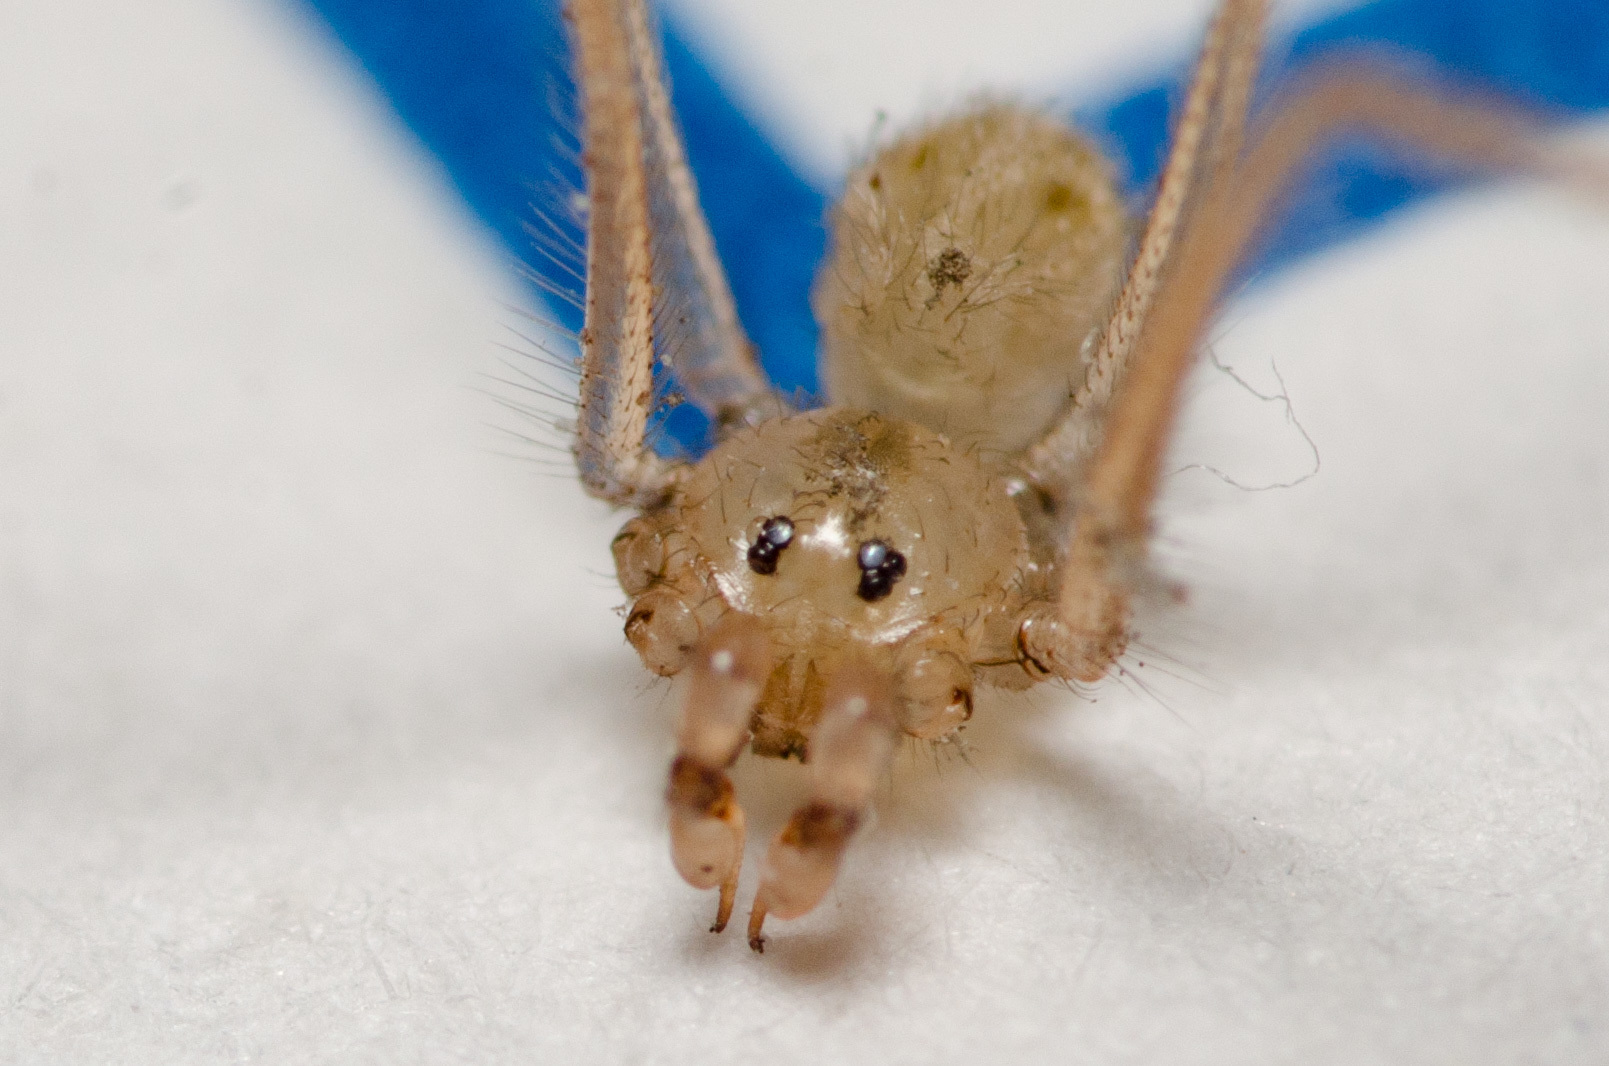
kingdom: Animalia
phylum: Arthropoda
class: Arachnida
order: Araneae
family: Pholcidae
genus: Spermophora
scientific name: Spermophora senoculata
